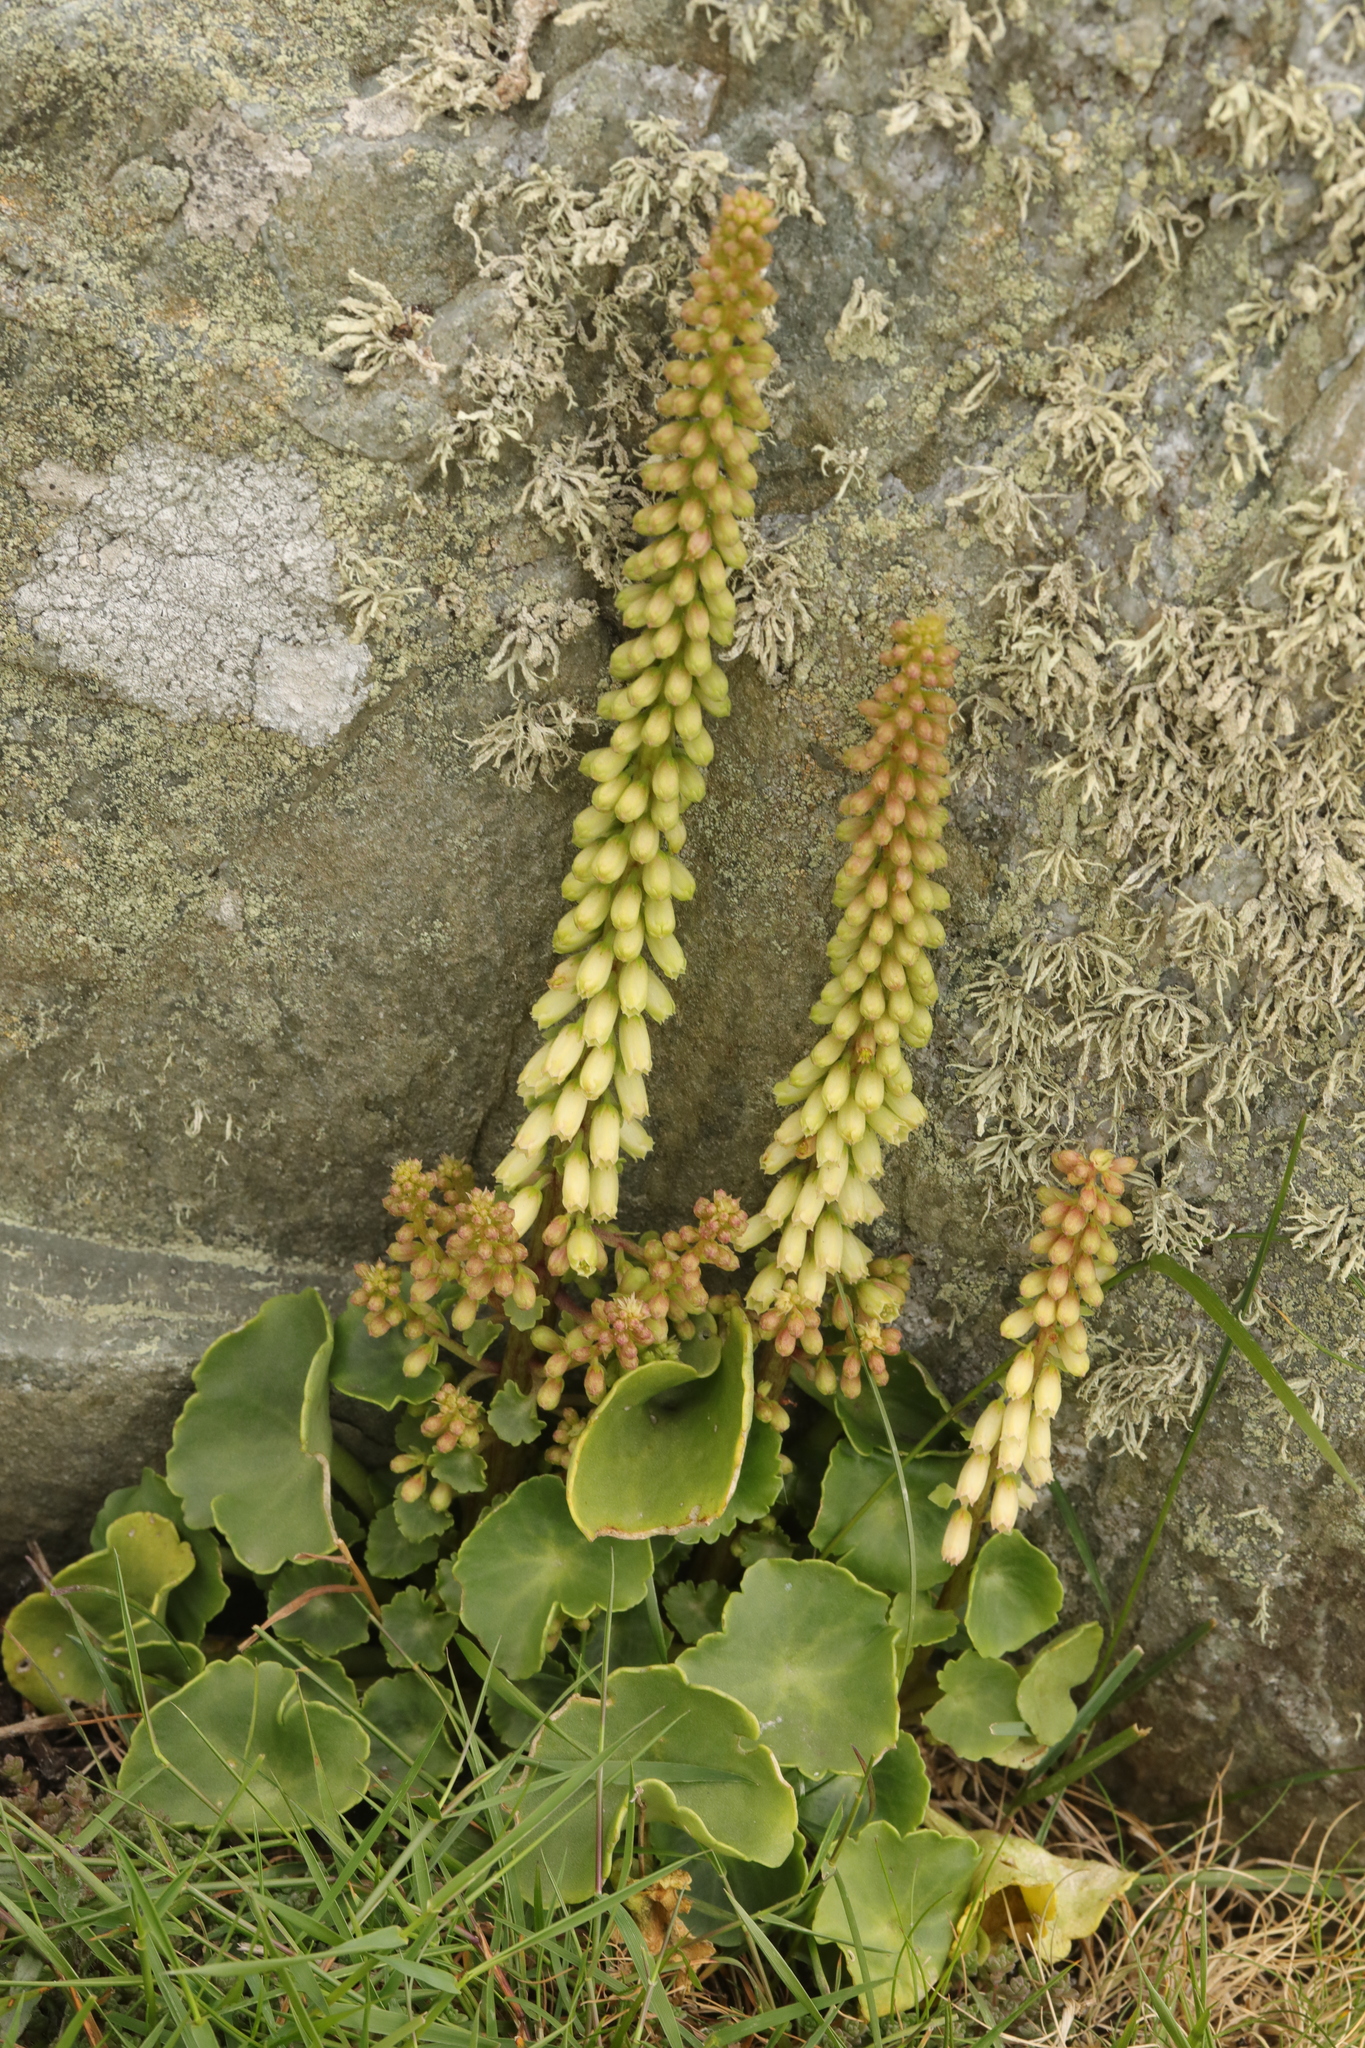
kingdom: Plantae
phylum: Tracheophyta
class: Magnoliopsida
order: Saxifragales
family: Crassulaceae
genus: Umbilicus
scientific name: Umbilicus rupestris
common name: Navelwort
